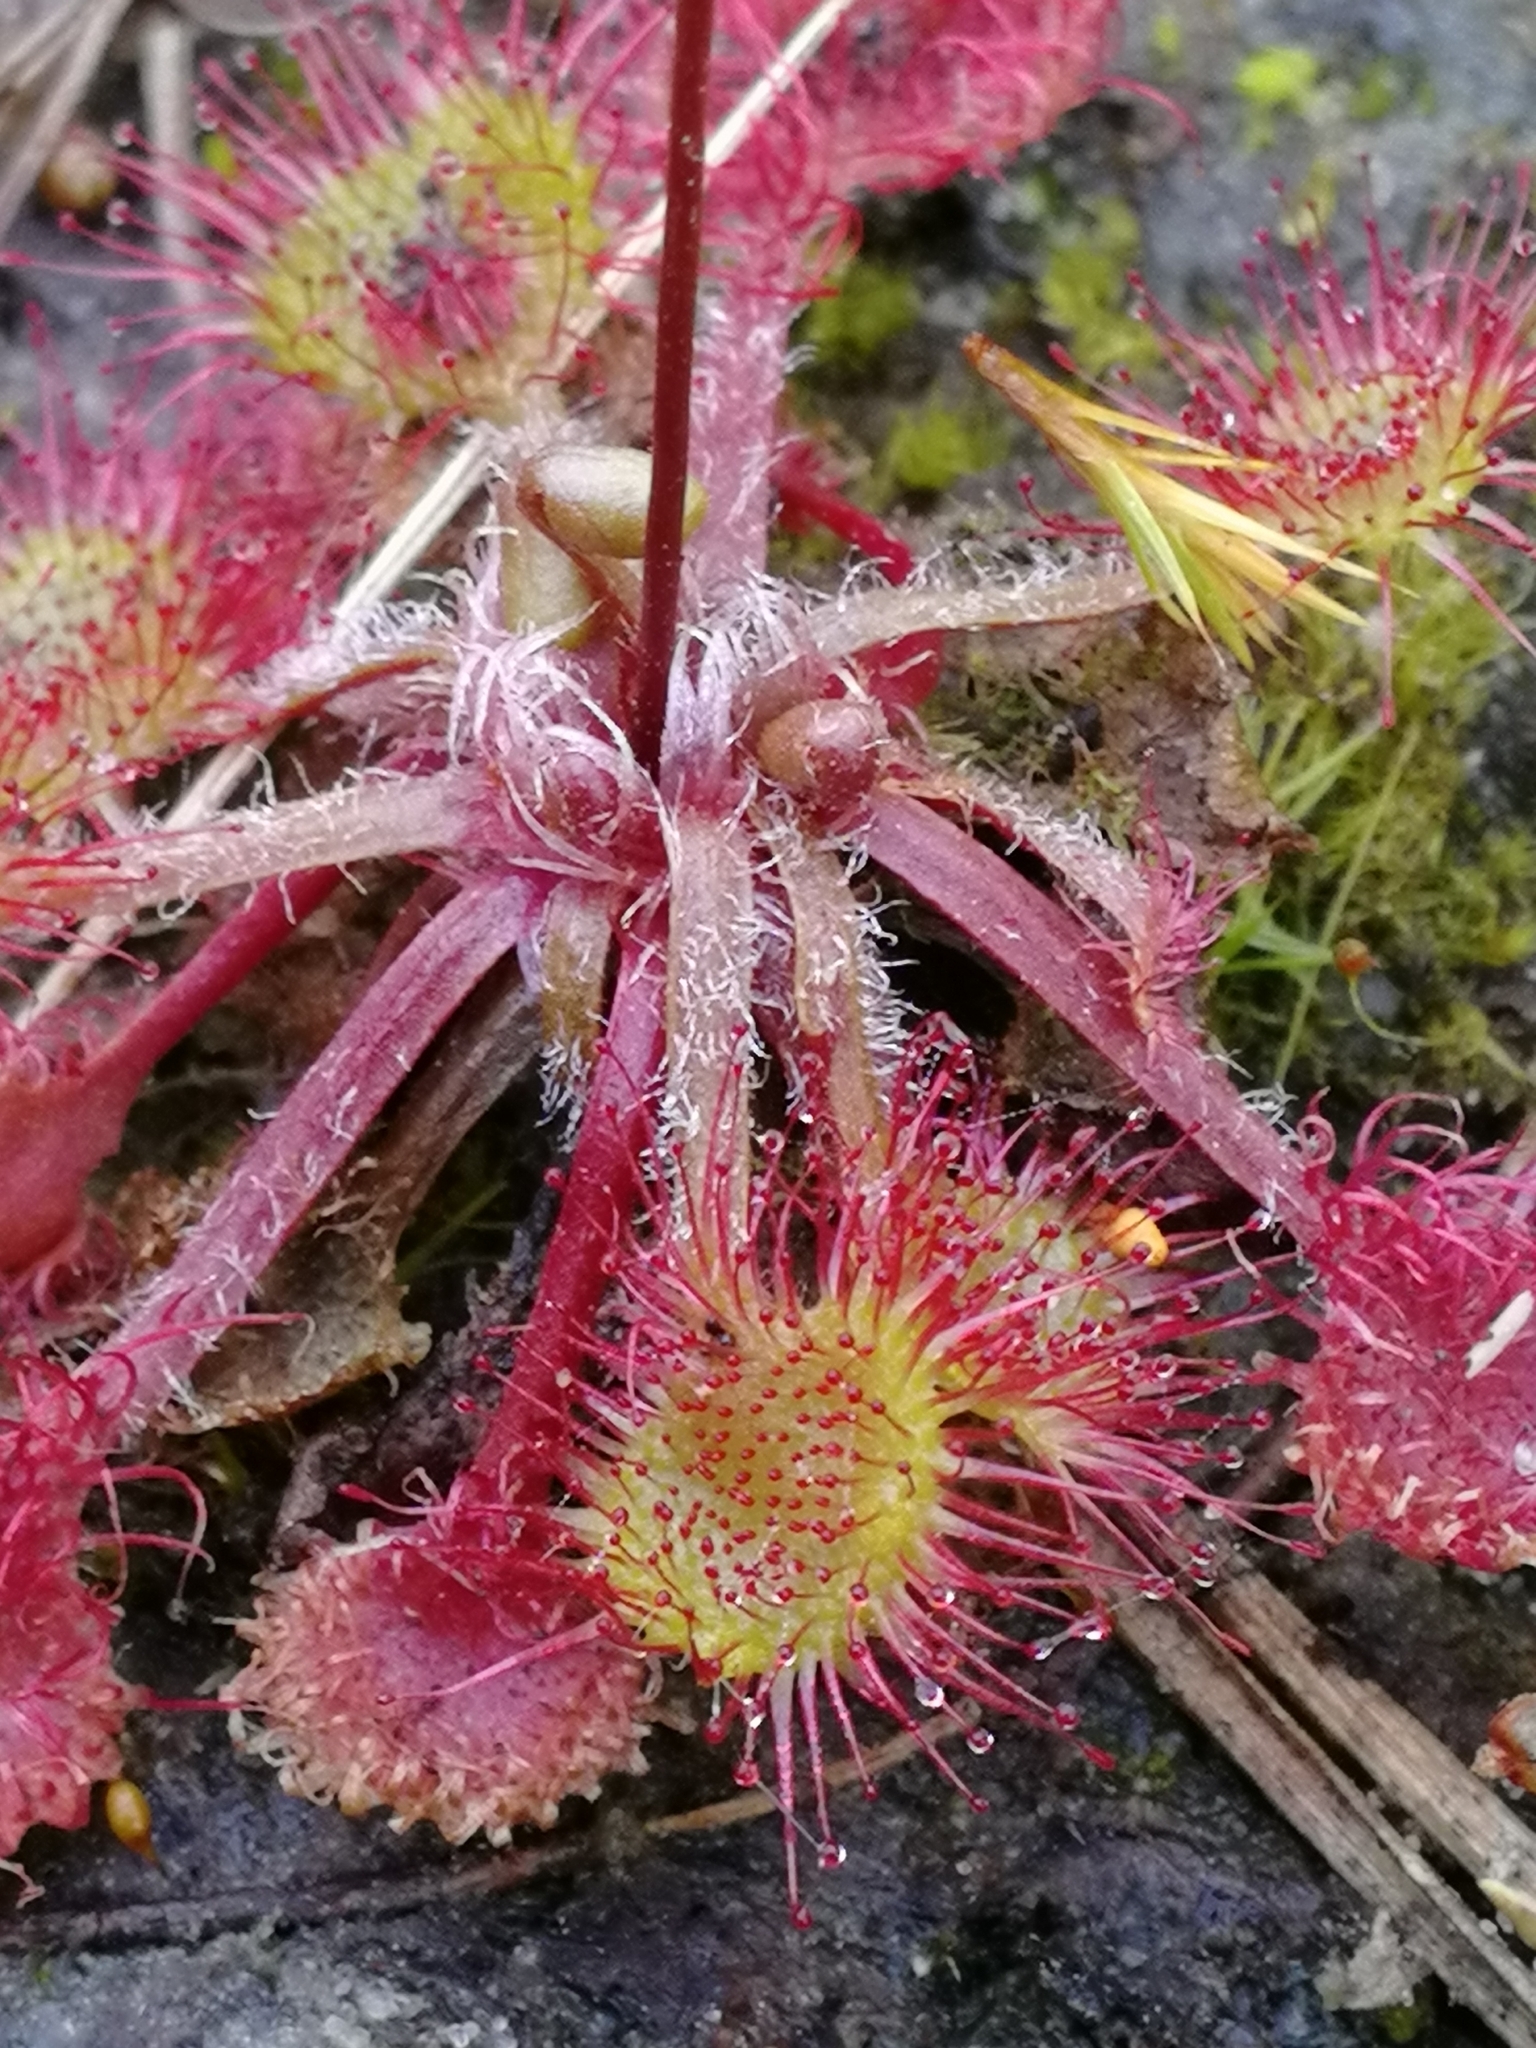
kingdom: Plantae
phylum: Tracheophyta
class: Magnoliopsida
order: Caryophyllales
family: Droseraceae
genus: Drosera
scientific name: Drosera rotundifolia
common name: Round-leaved sundew
